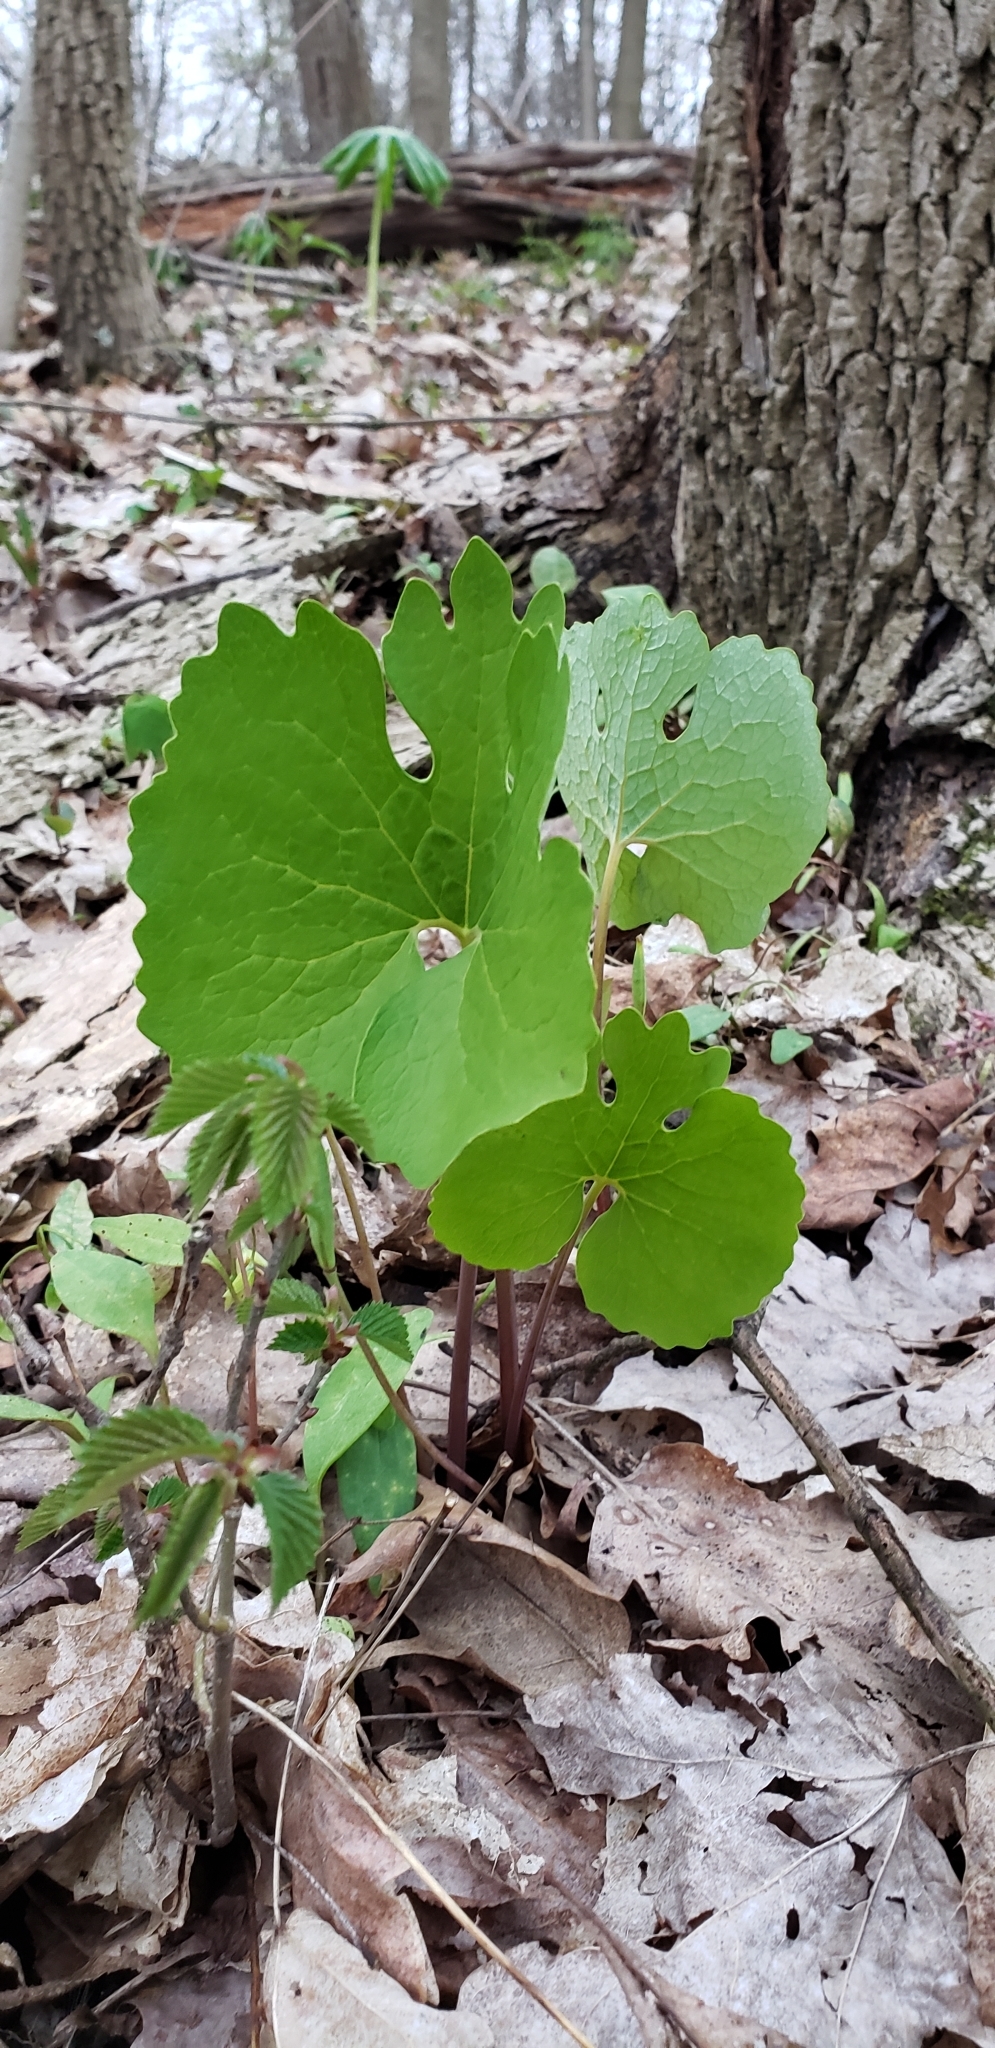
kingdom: Plantae
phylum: Tracheophyta
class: Magnoliopsida
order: Ranunculales
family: Papaveraceae
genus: Sanguinaria
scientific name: Sanguinaria canadensis
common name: Bloodroot
